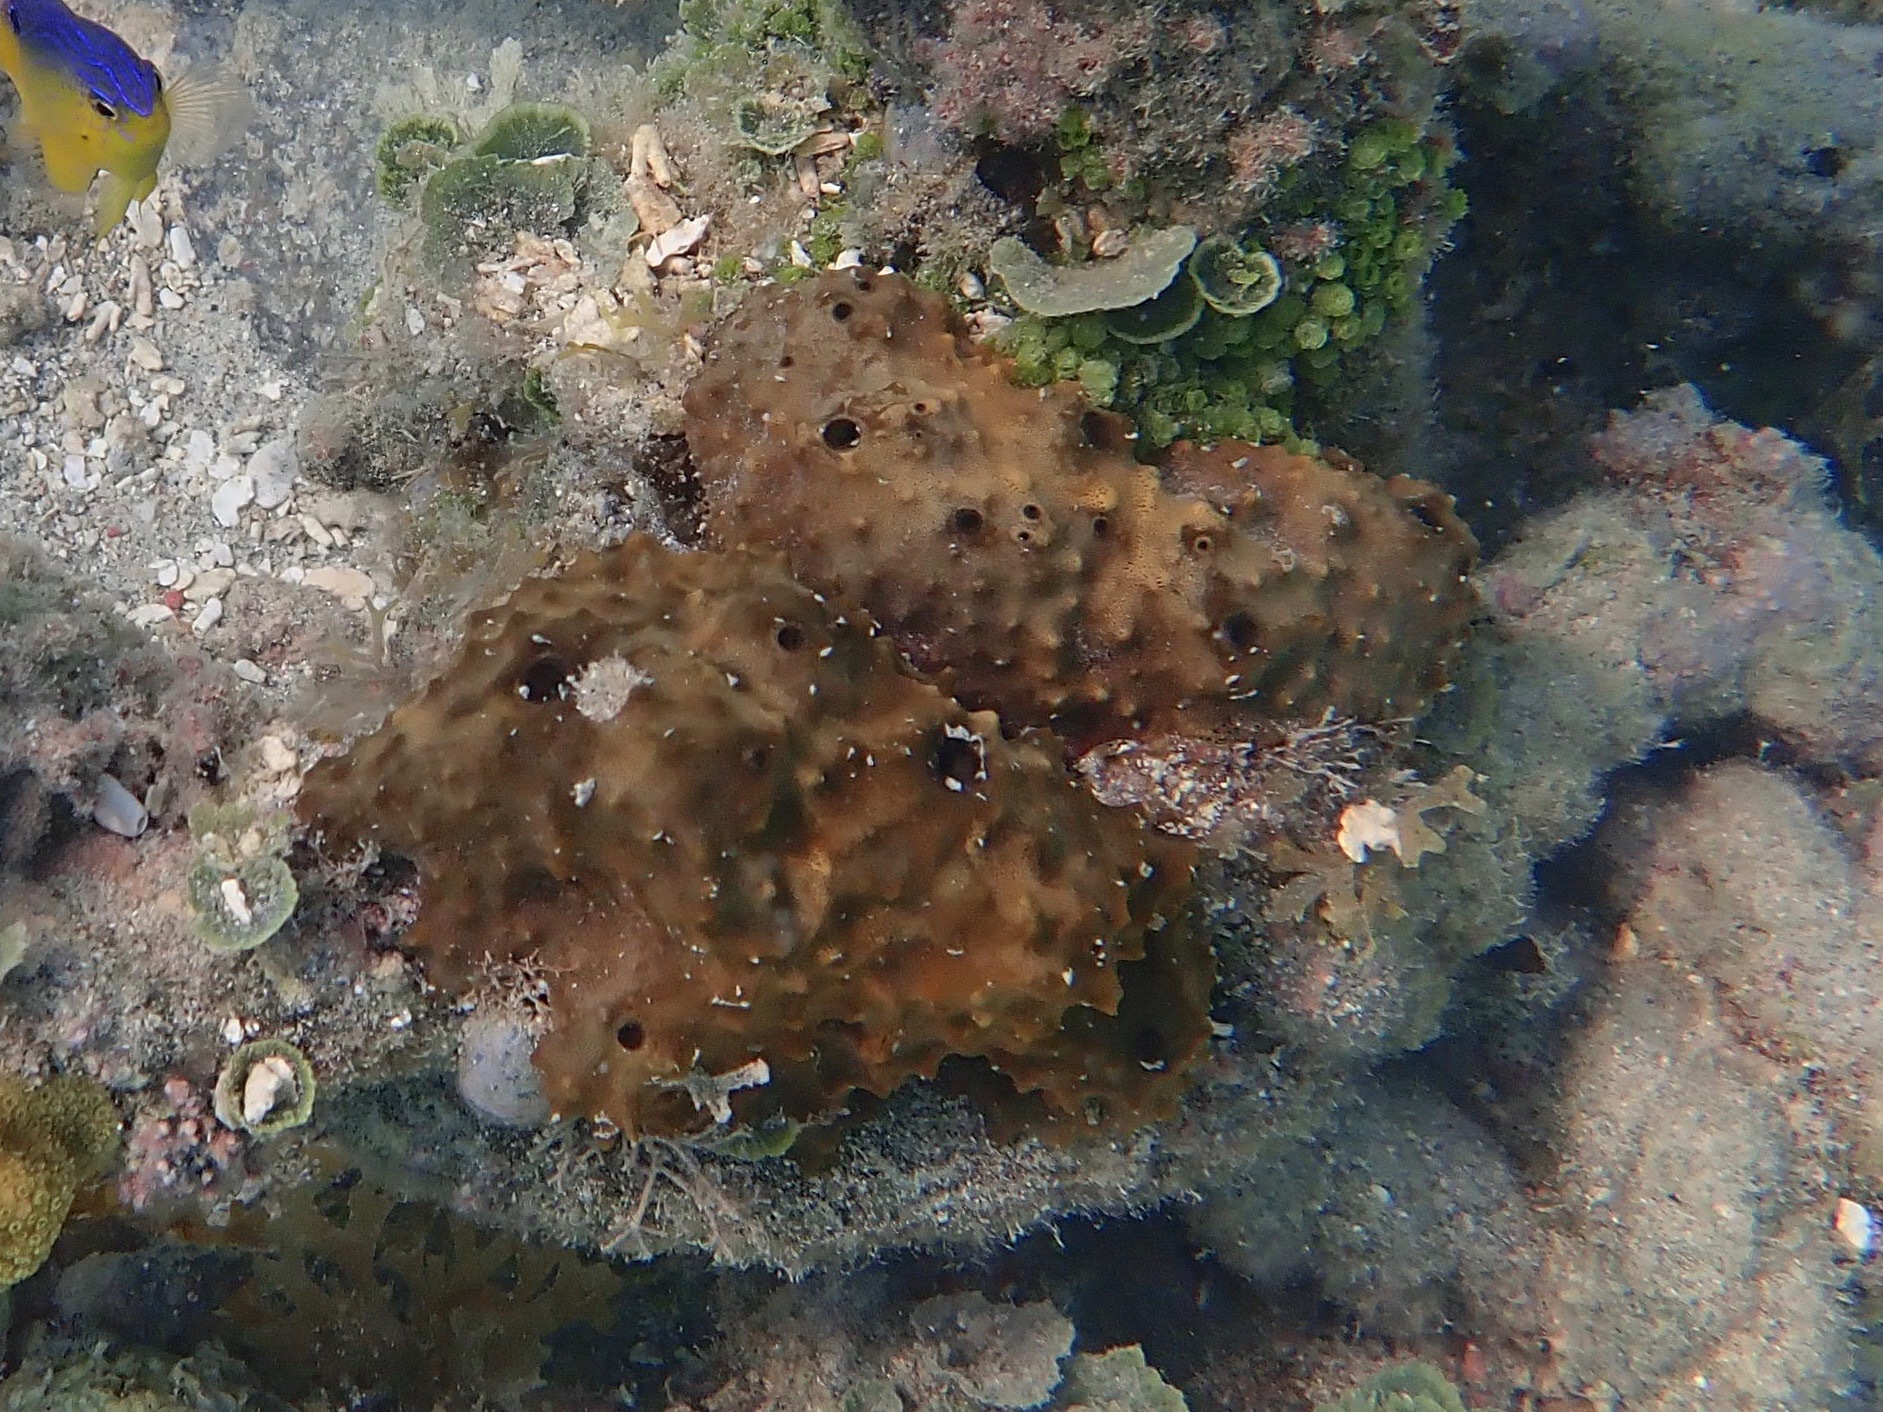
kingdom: Animalia
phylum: Porifera
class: Demospongiae
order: Dictyoceratida
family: Irciniidae
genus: Ircinia
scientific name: Ircinia felix
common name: Stinker sponge
